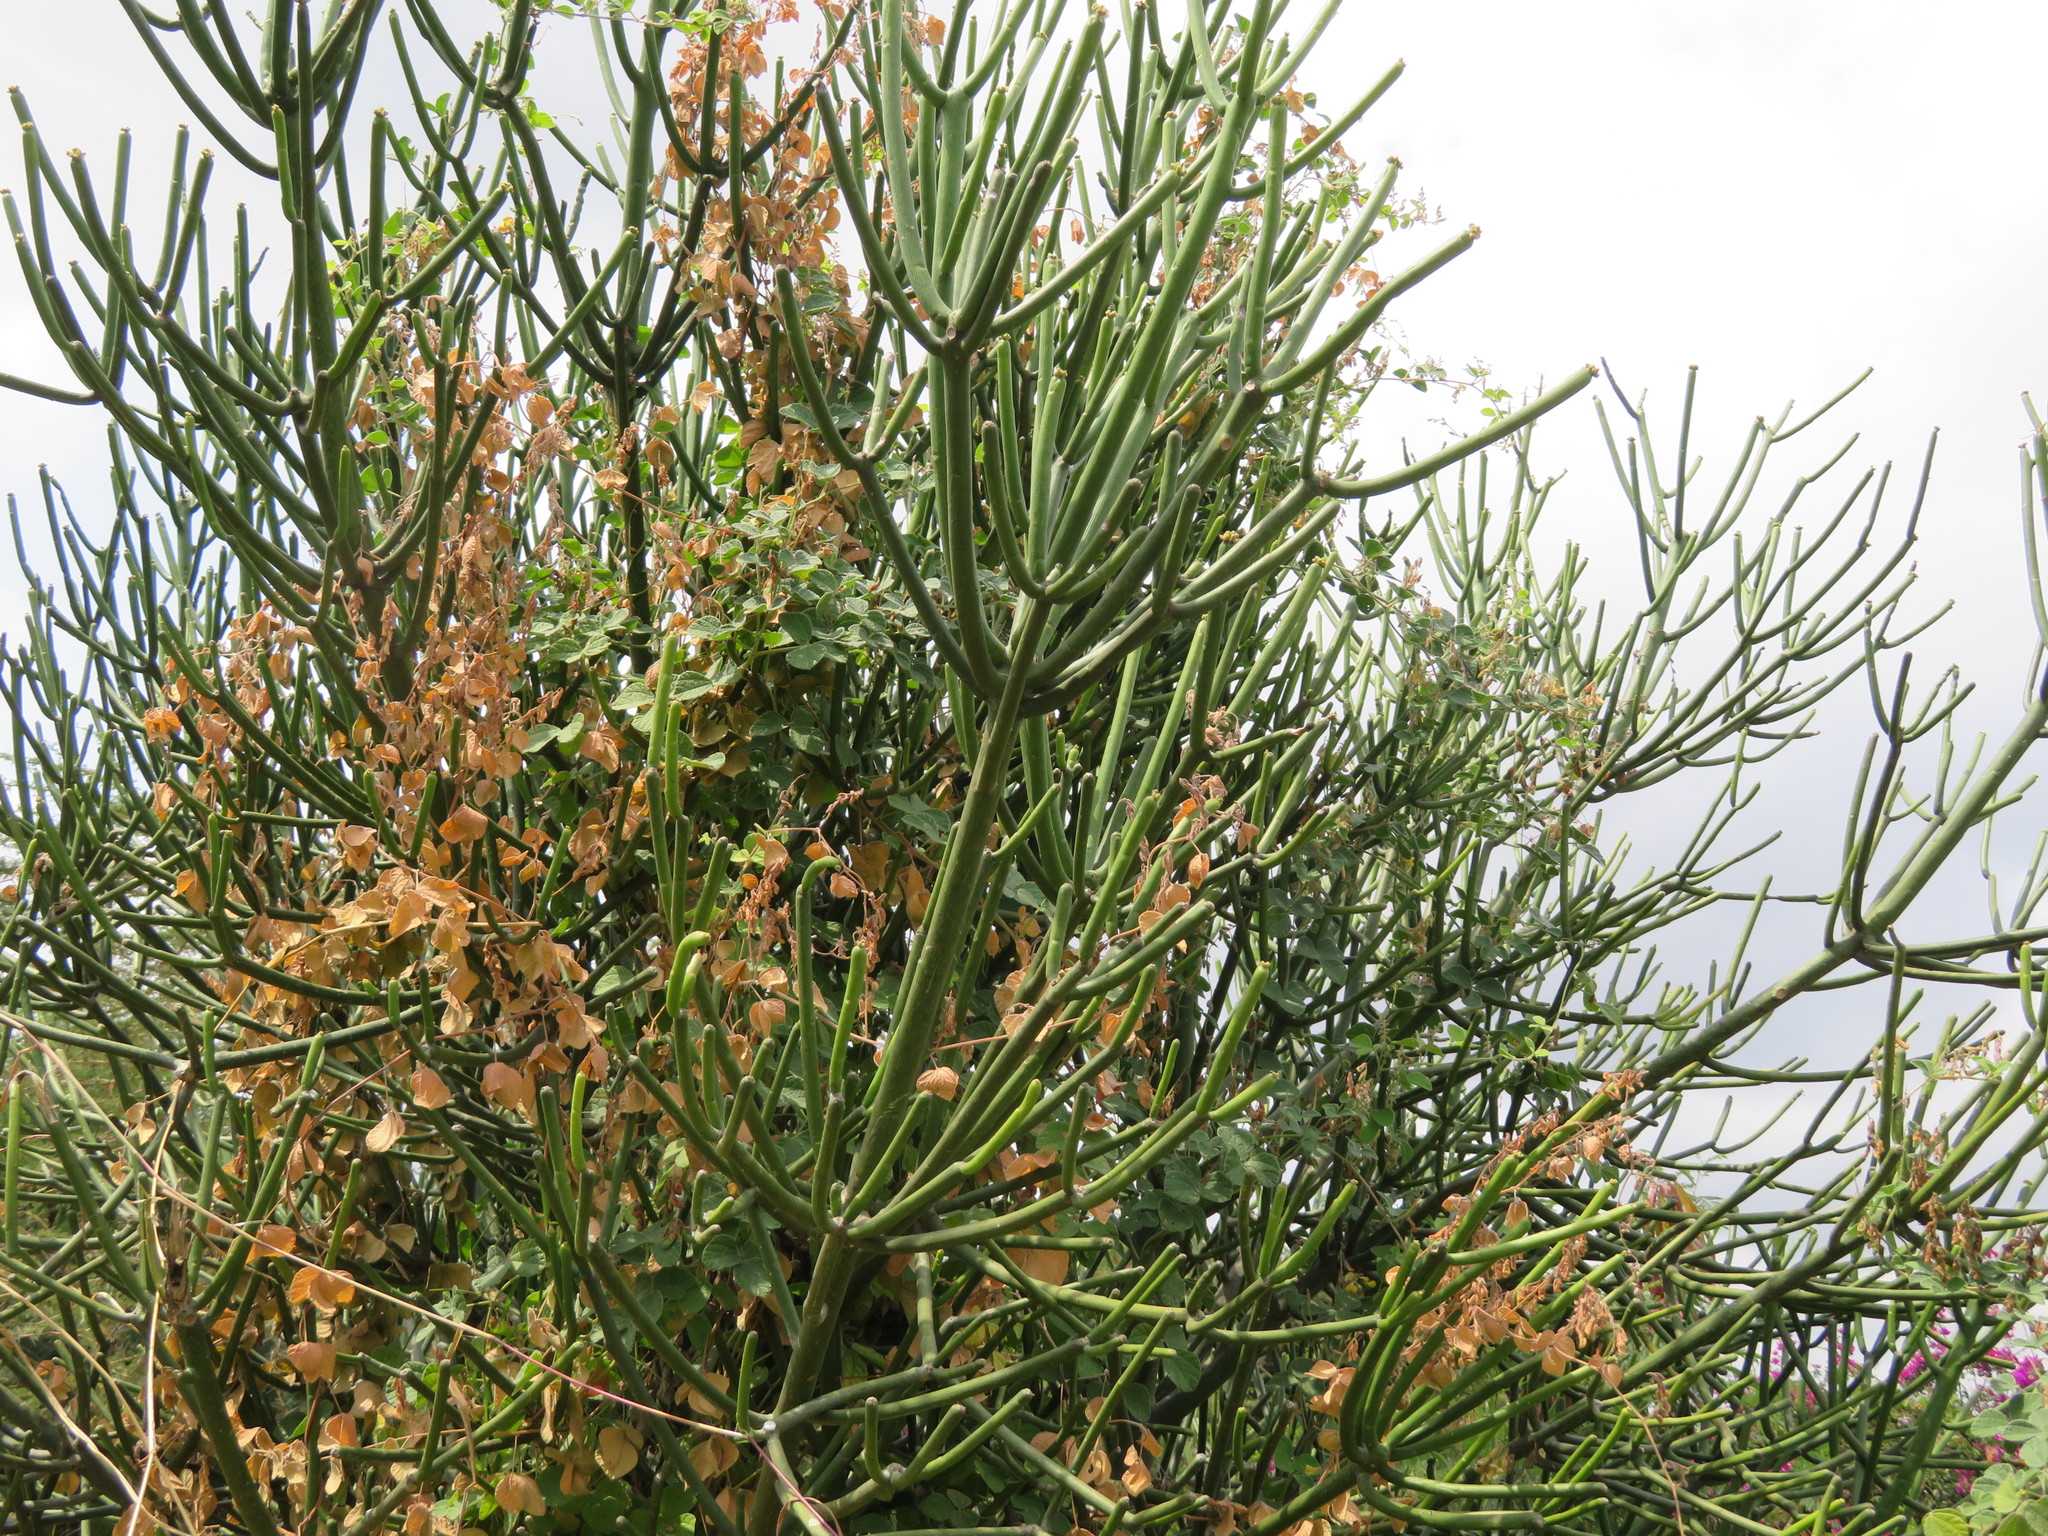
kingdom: Plantae
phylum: Tracheophyta
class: Magnoliopsida
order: Malpighiales
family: Euphorbiaceae
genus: Euphorbia
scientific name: Euphorbia tirucalli
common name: Indiantree spurge
